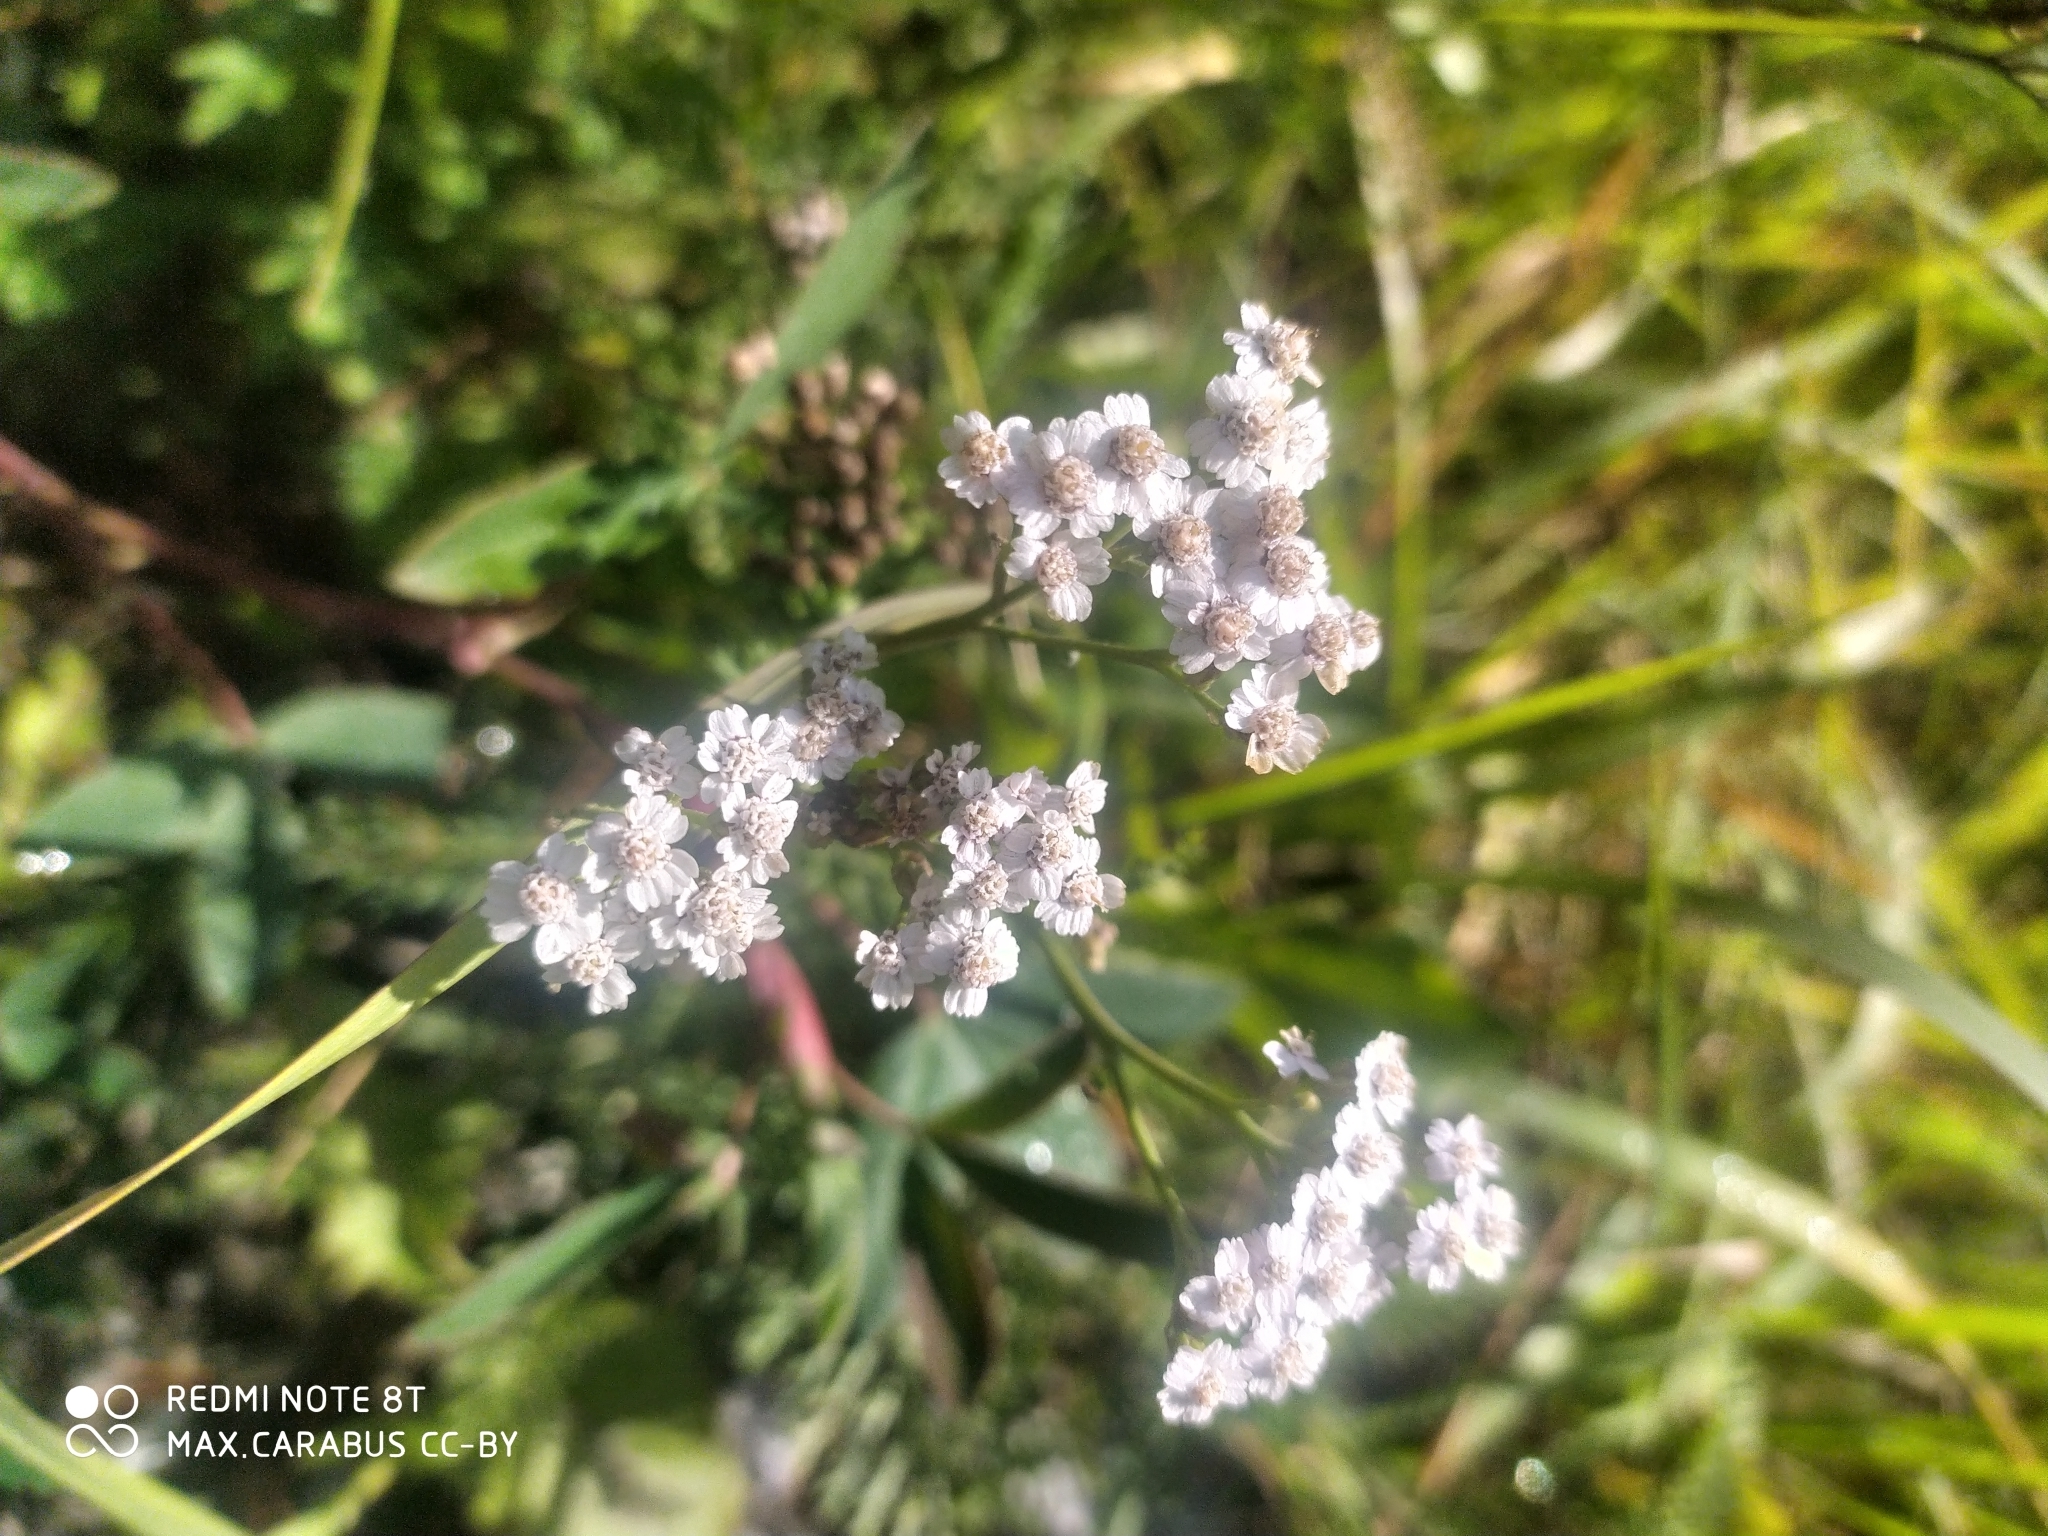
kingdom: Plantae
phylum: Tracheophyta
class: Magnoliopsida
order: Asterales
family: Asteraceae
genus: Achillea
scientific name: Achillea millefolium
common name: Yarrow
